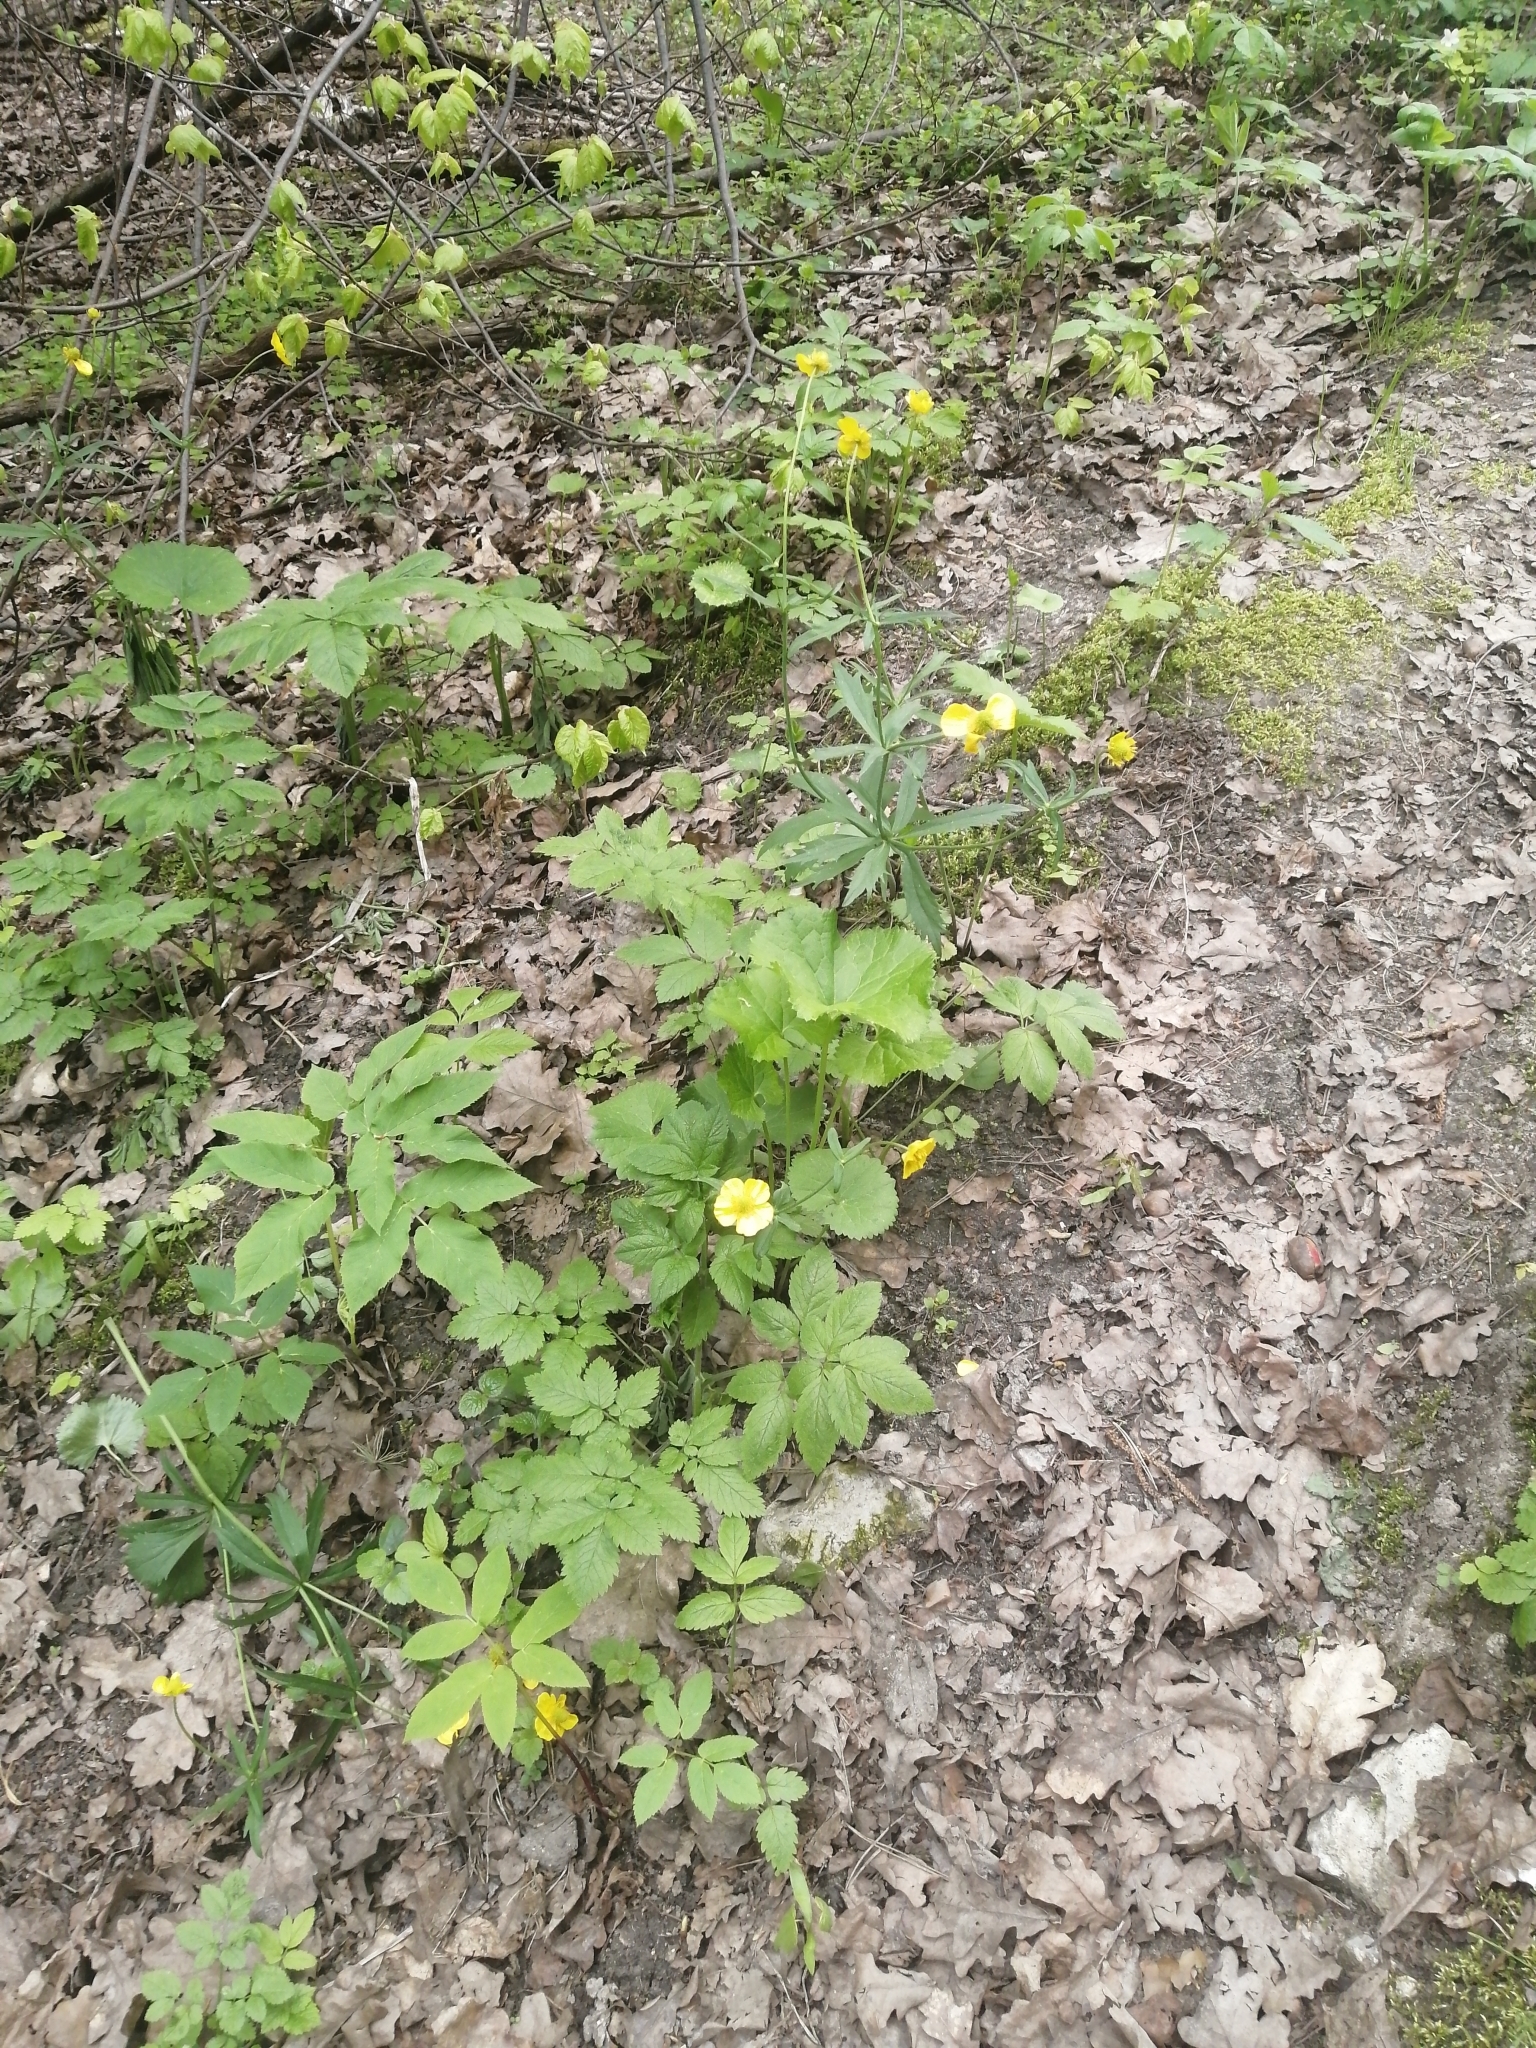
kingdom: Plantae
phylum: Tracheophyta
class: Magnoliopsida
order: Ranunculales
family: Ranunculaceae
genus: Ranunculus
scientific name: Ranunculus cassubicus
